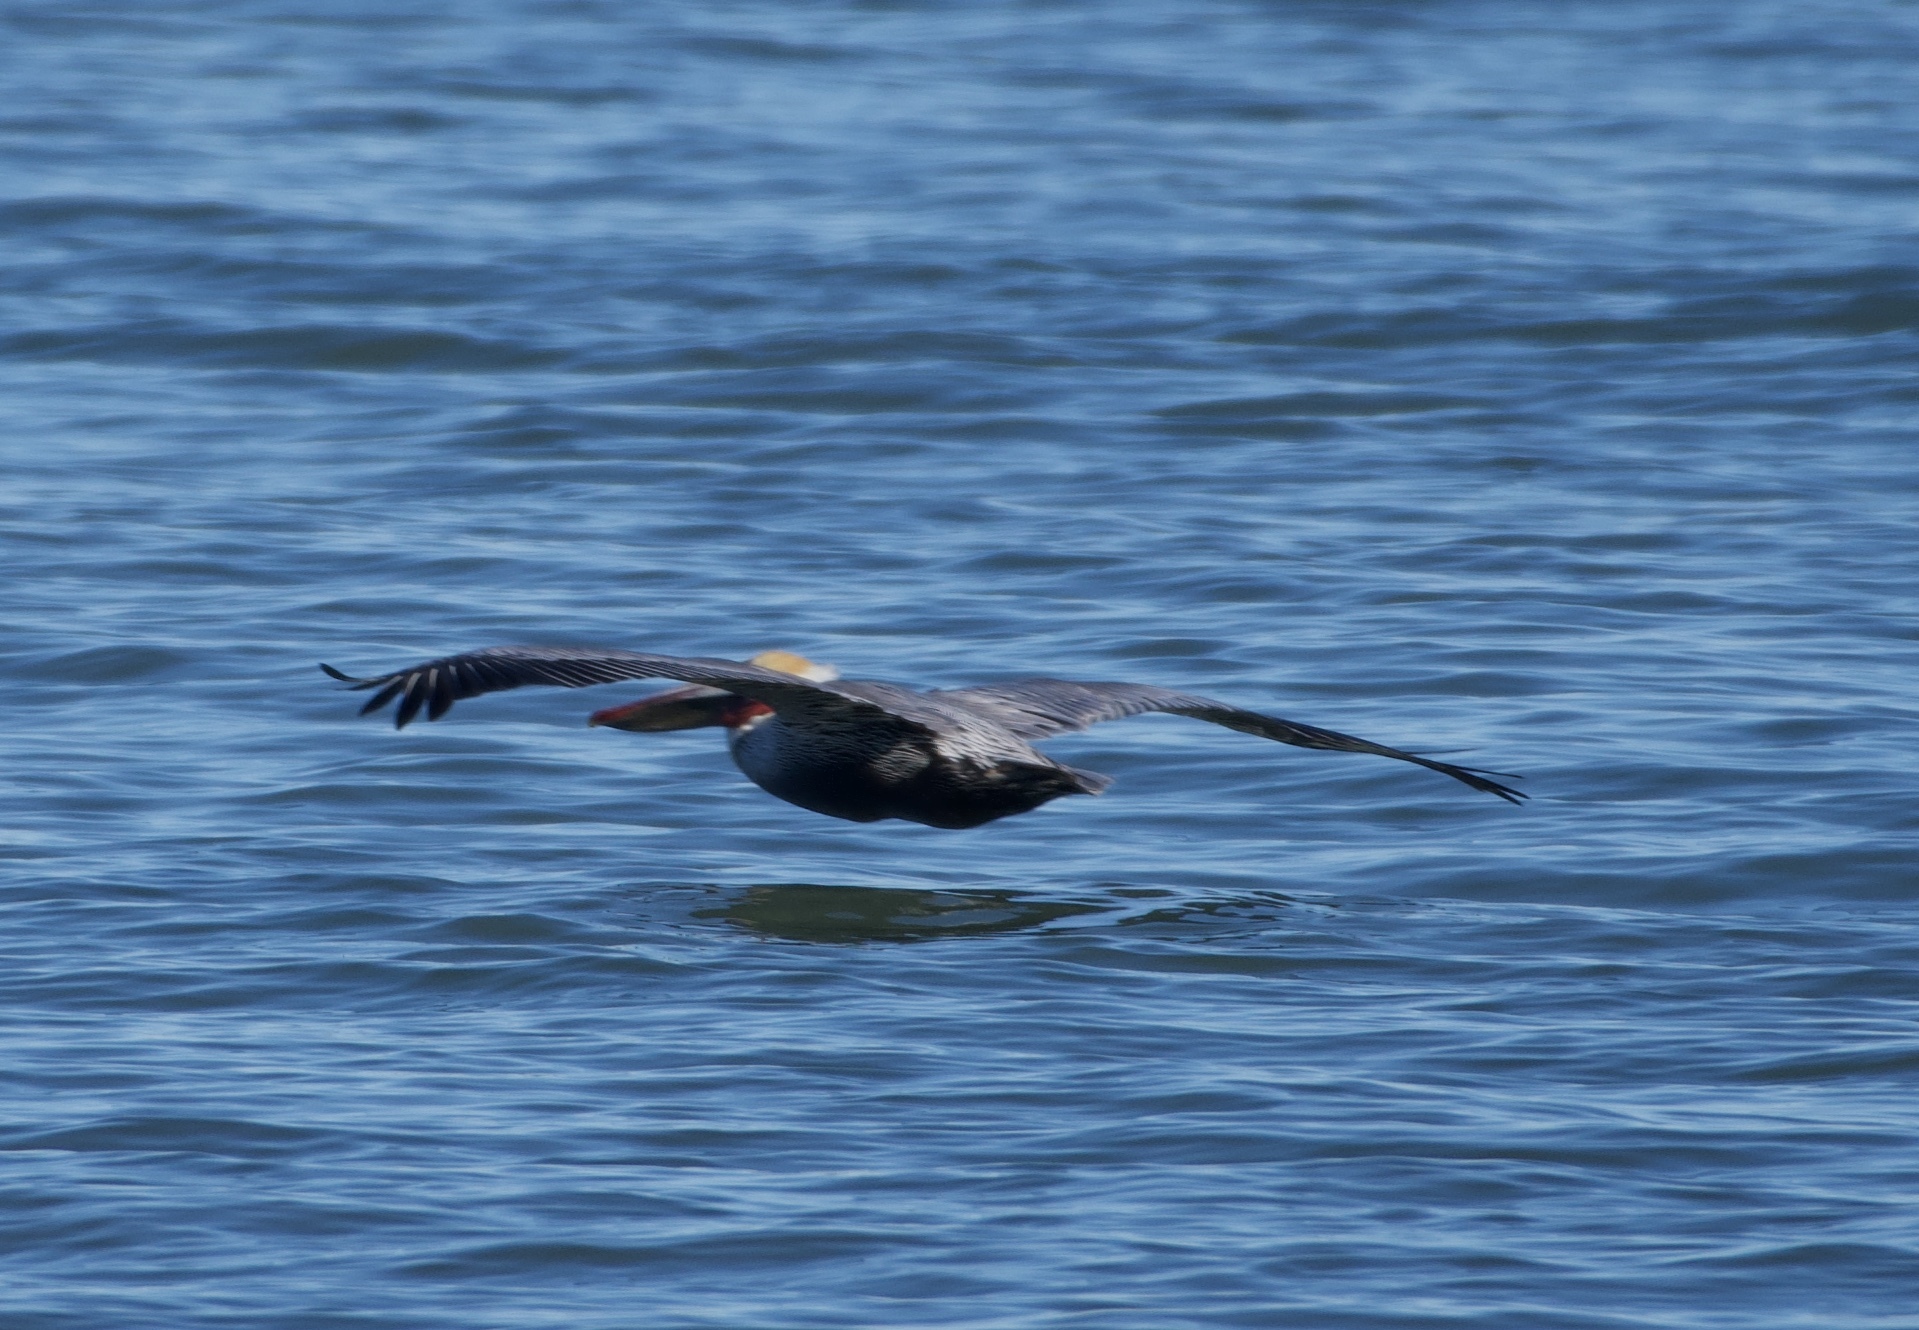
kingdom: Animalia
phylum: Chordata
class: Aves
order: Pelecaniformes
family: Pelecanidae
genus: Pelecanus
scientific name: Pelecanus occidentalis
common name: Brown pelican
